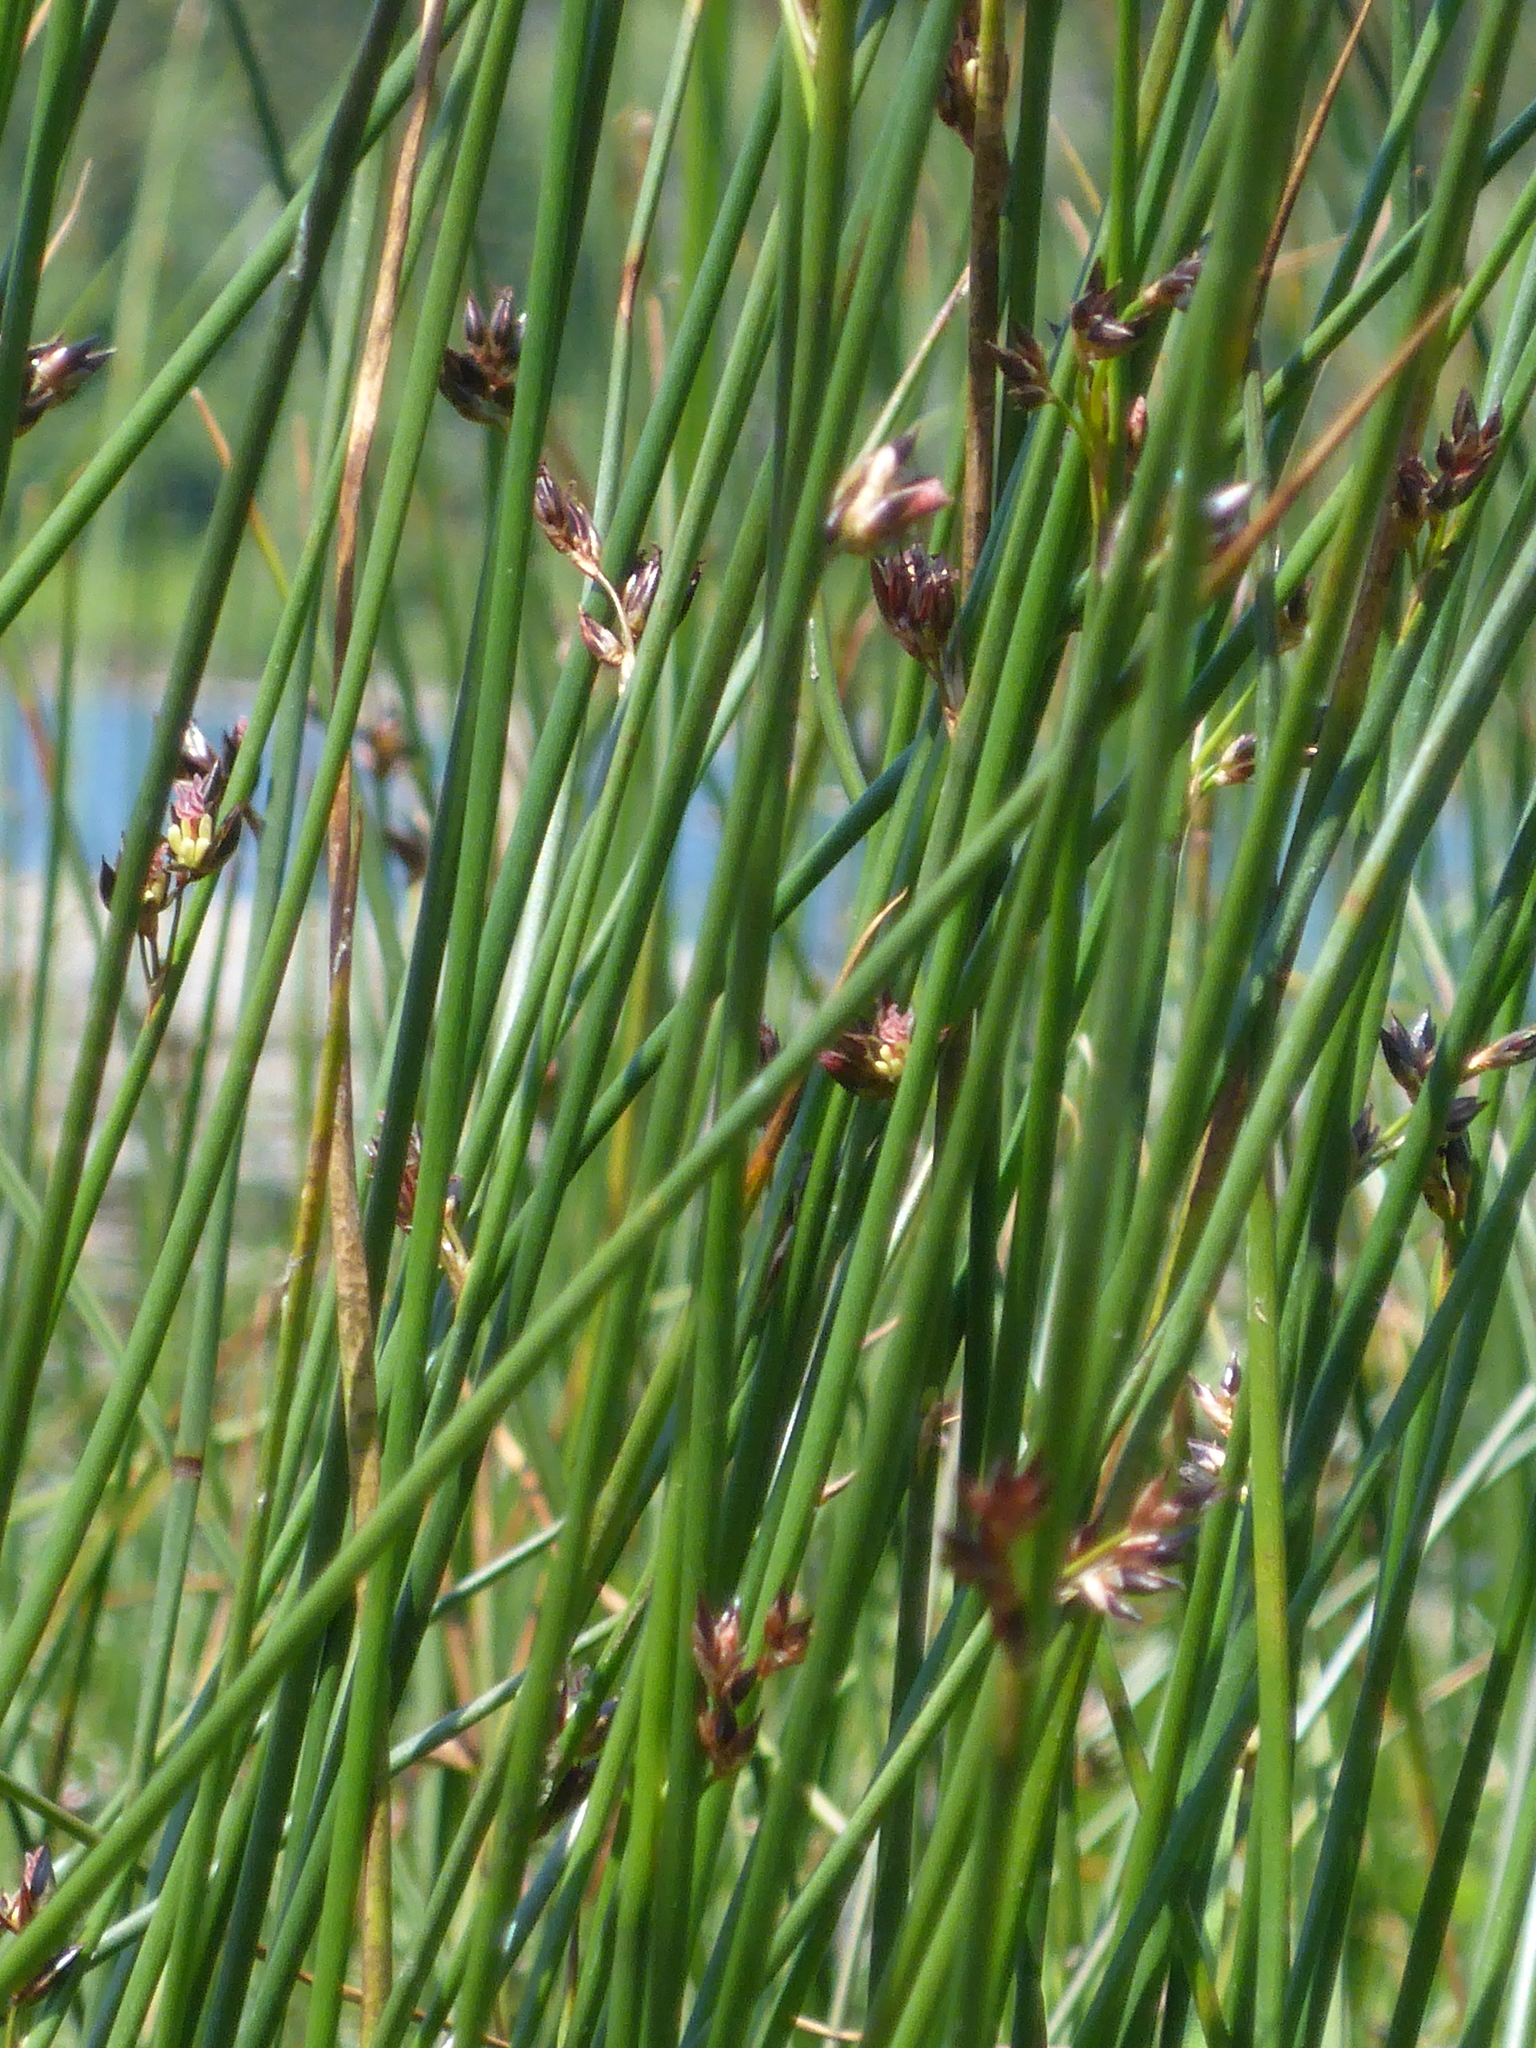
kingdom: Plantae
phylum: Tracheophyta
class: Liliopsida
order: Poales
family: Juncaceae
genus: Juncus
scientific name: Juncus balticus
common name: Baltic rush
